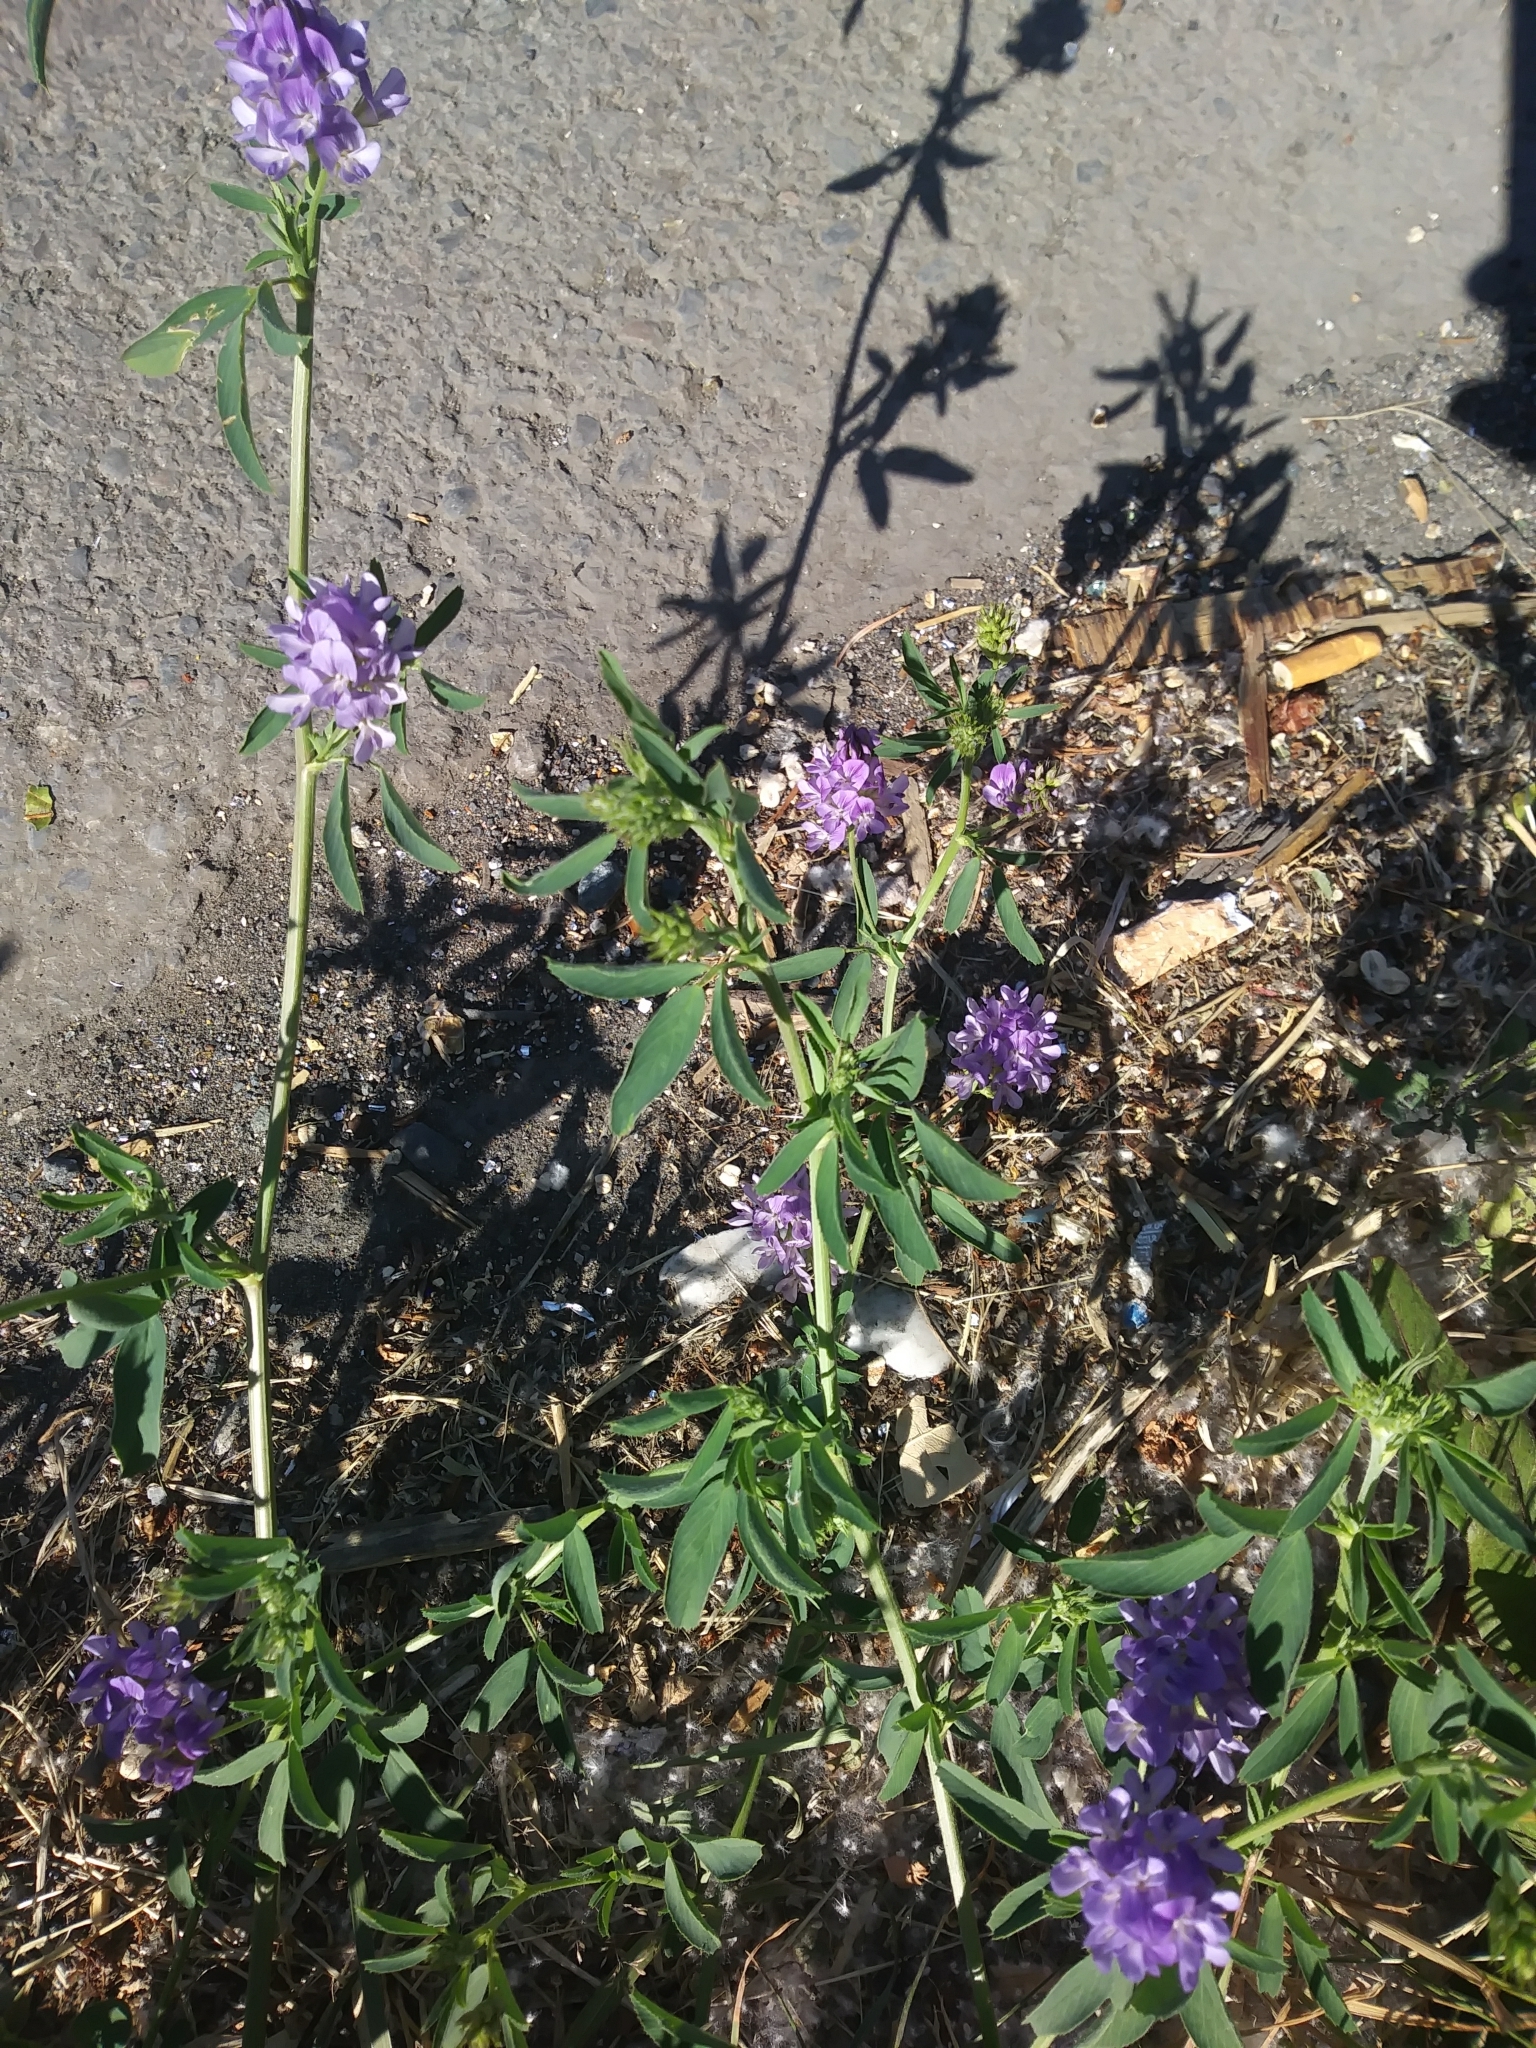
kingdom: Plantae
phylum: Tracheophyta
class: Magnoliopsida
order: Fabales
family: Fabaceae
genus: Medicago
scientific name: Medicago sativa
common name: Alfalfa
